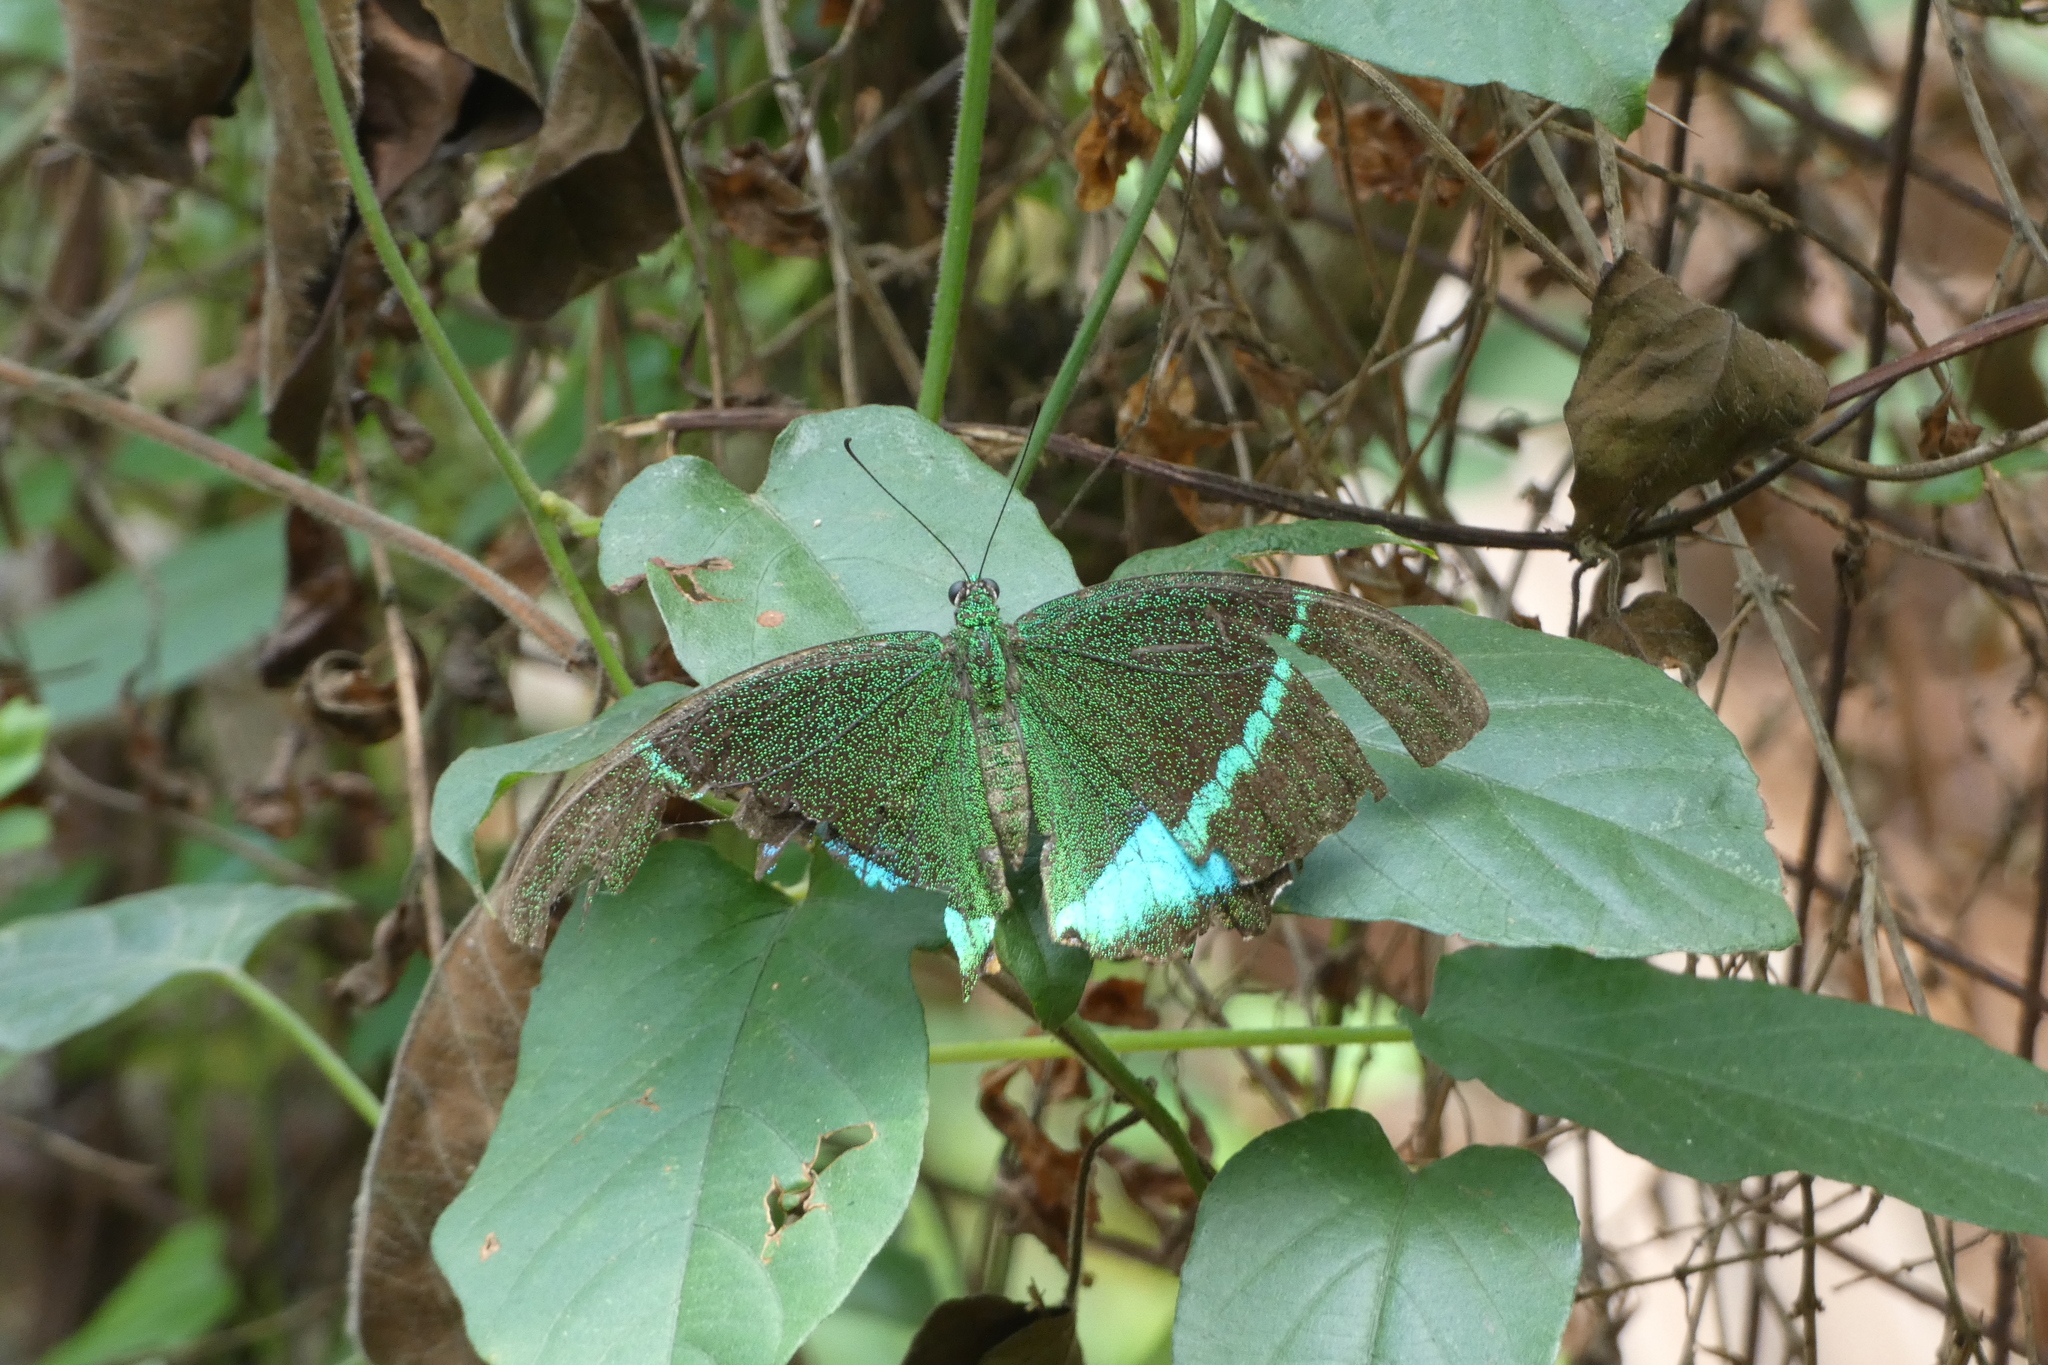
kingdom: Animalia
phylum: Arthropoda
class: Insecta
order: Lepidoptera
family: Papilionidae
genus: Papilio
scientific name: Papilio crino
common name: Common banded peacock
